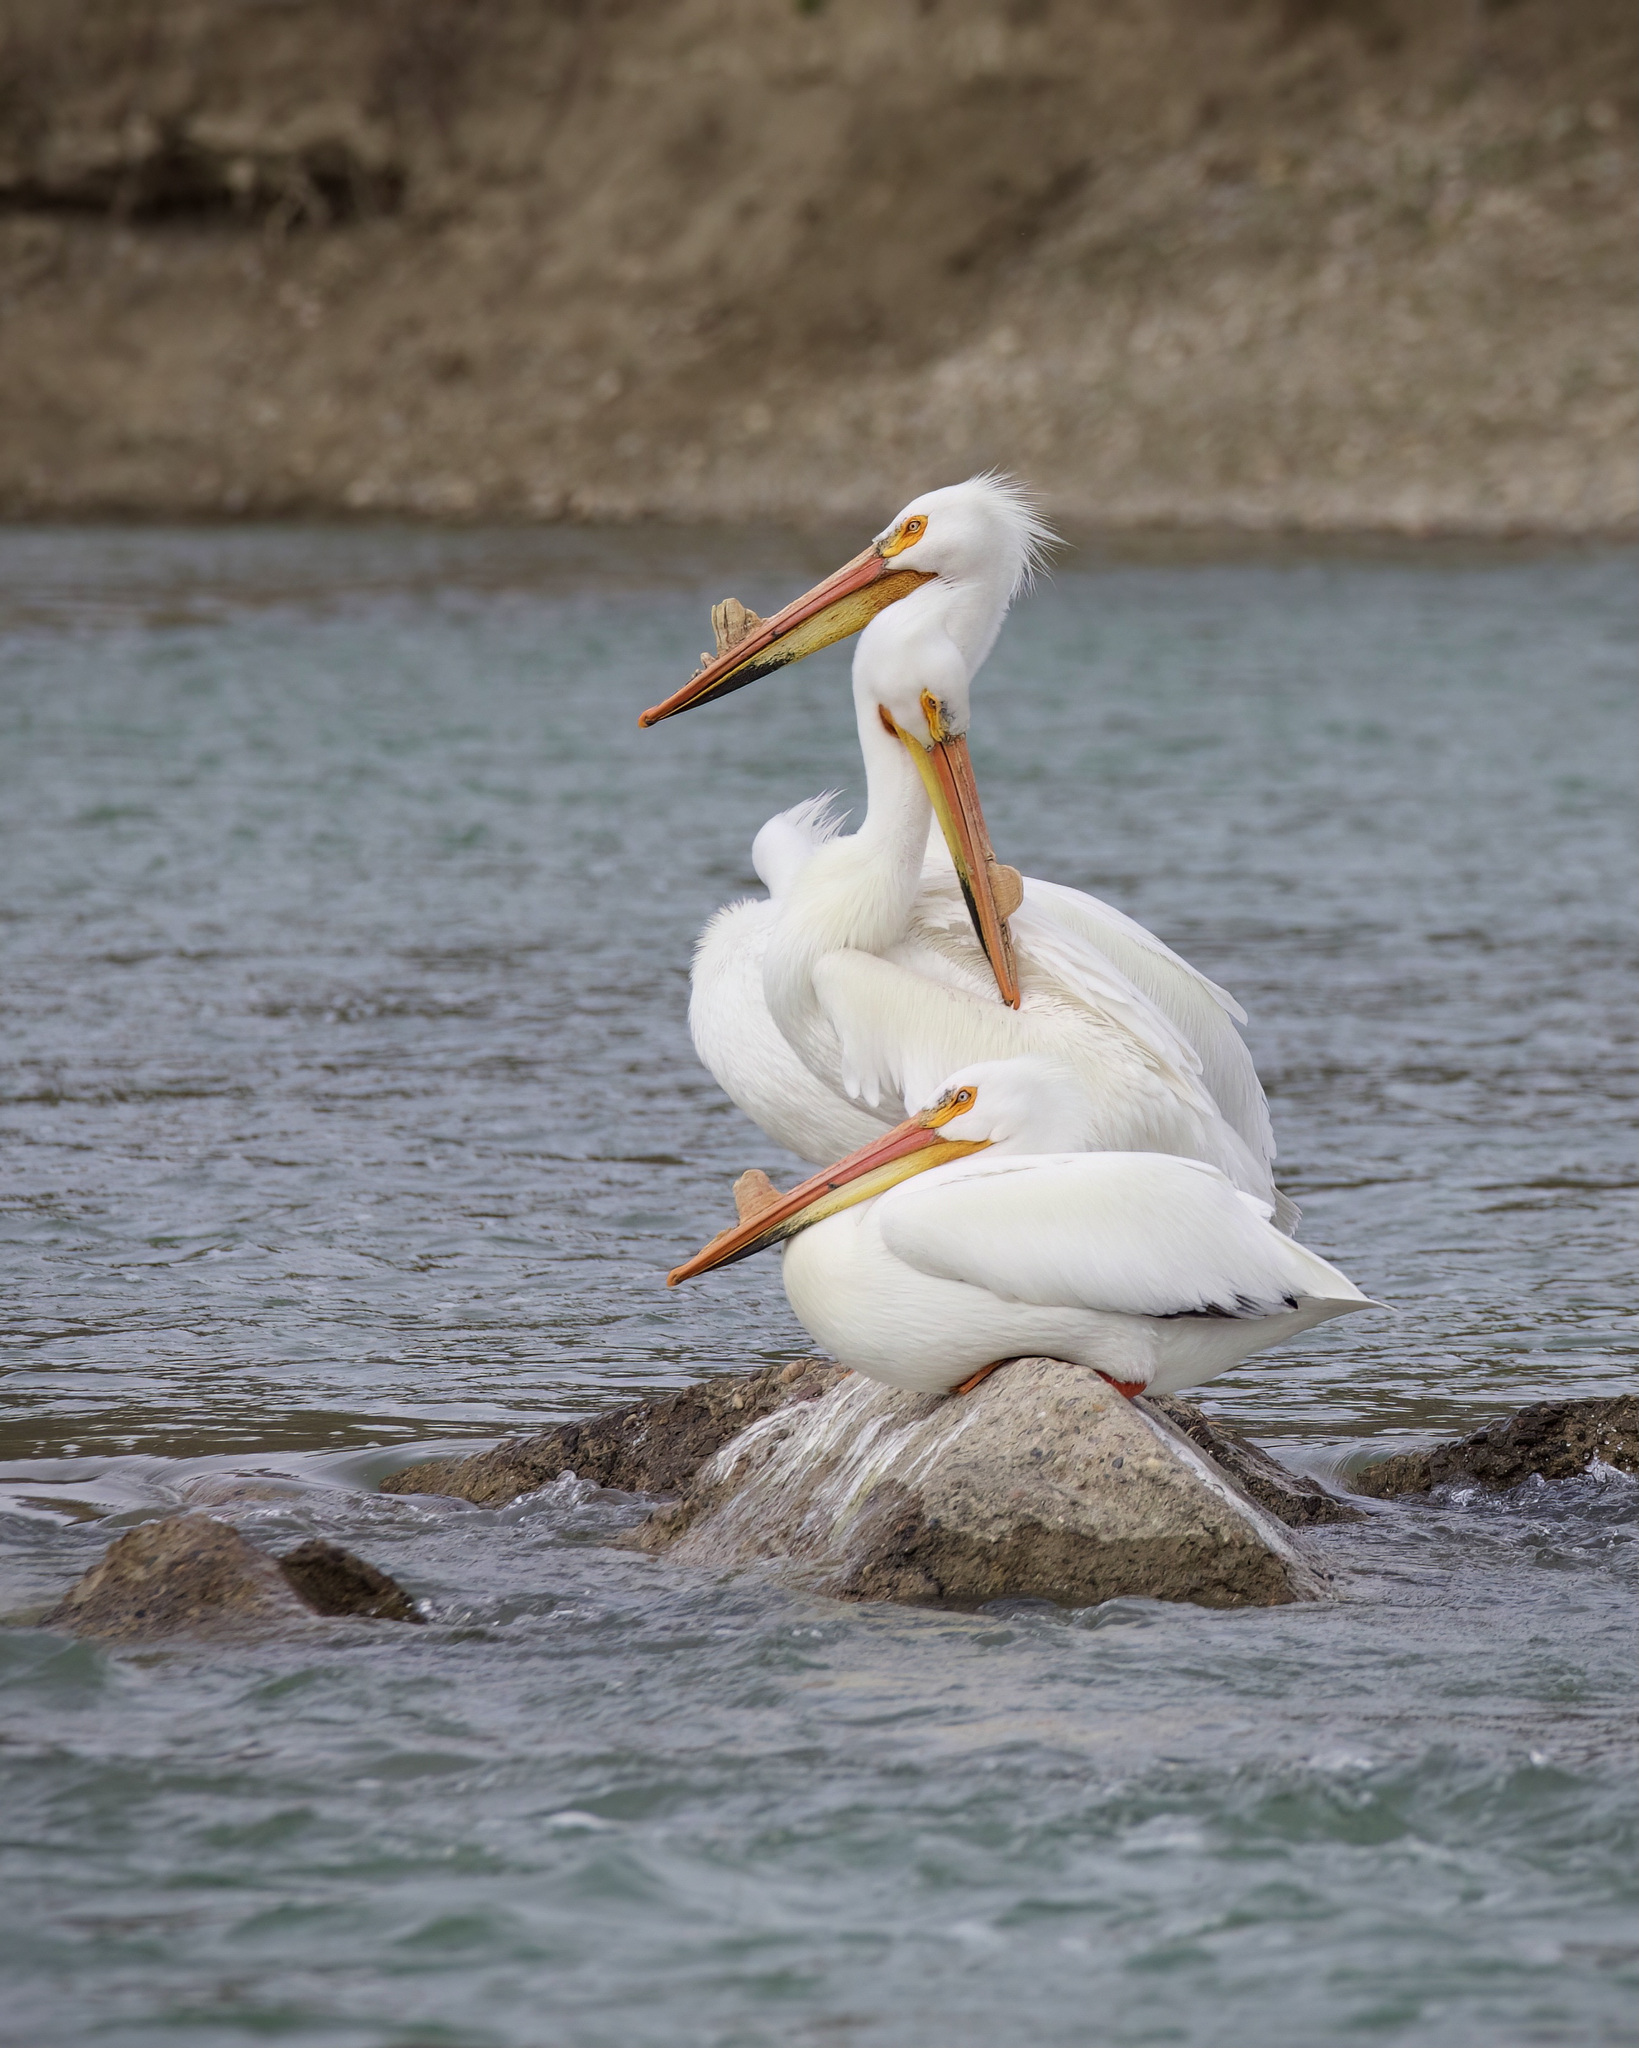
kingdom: Animalia
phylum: Chordata
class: Aves
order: Pelecaniformes
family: Pelecanidae
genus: Pelecanus
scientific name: Pelecanus erythrorhynchos
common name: American white pelican
